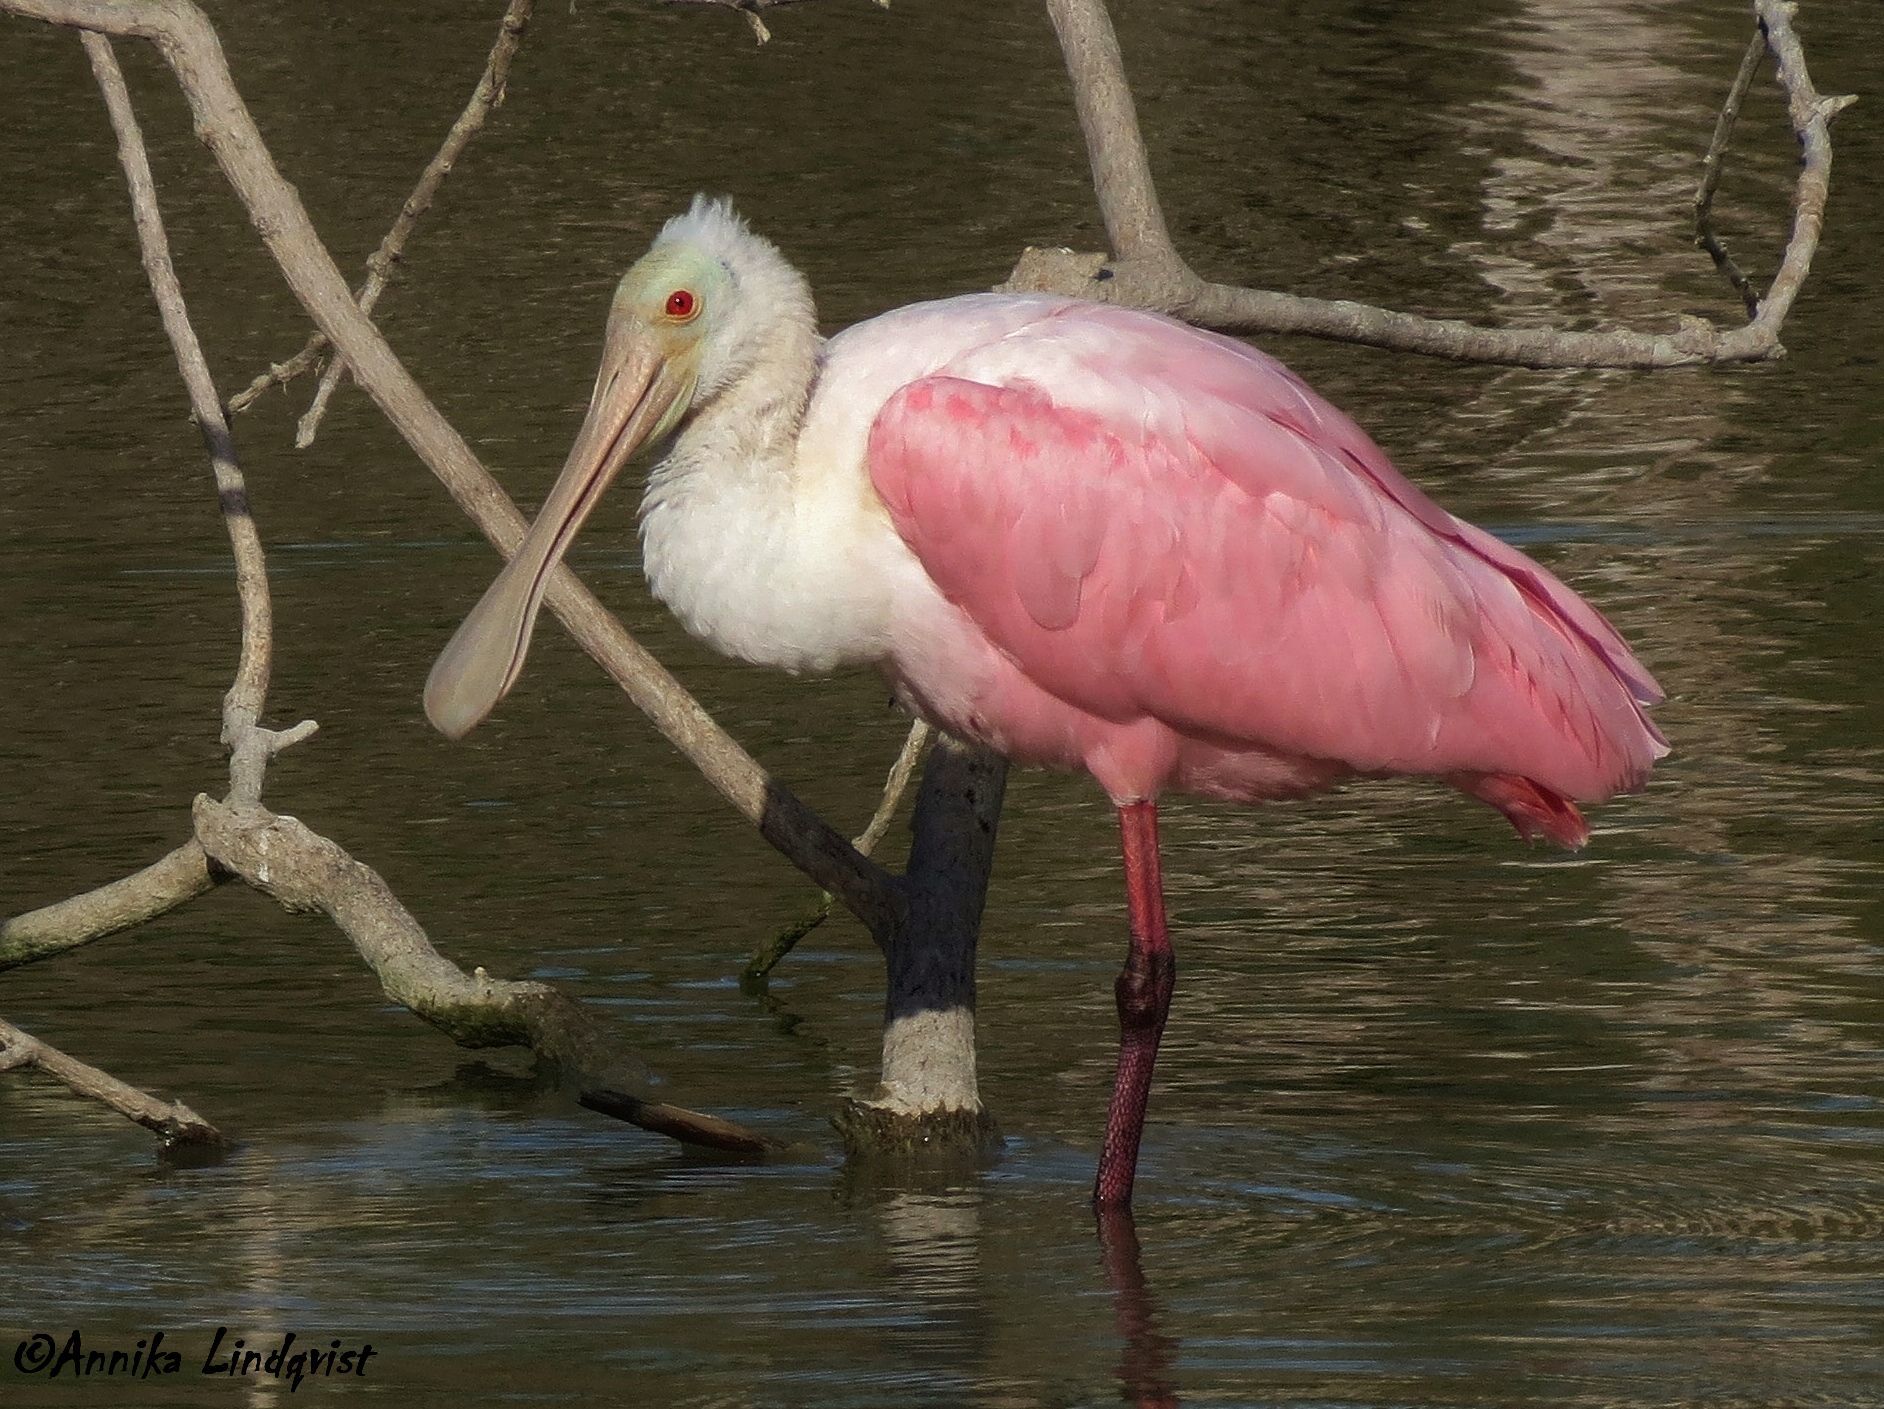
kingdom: Animalia
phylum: Chordata
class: Aves
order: Pelecaniformes
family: Threskiornithidae
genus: Platalea
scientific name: Platalea ajaja
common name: Roseate spoonbill
